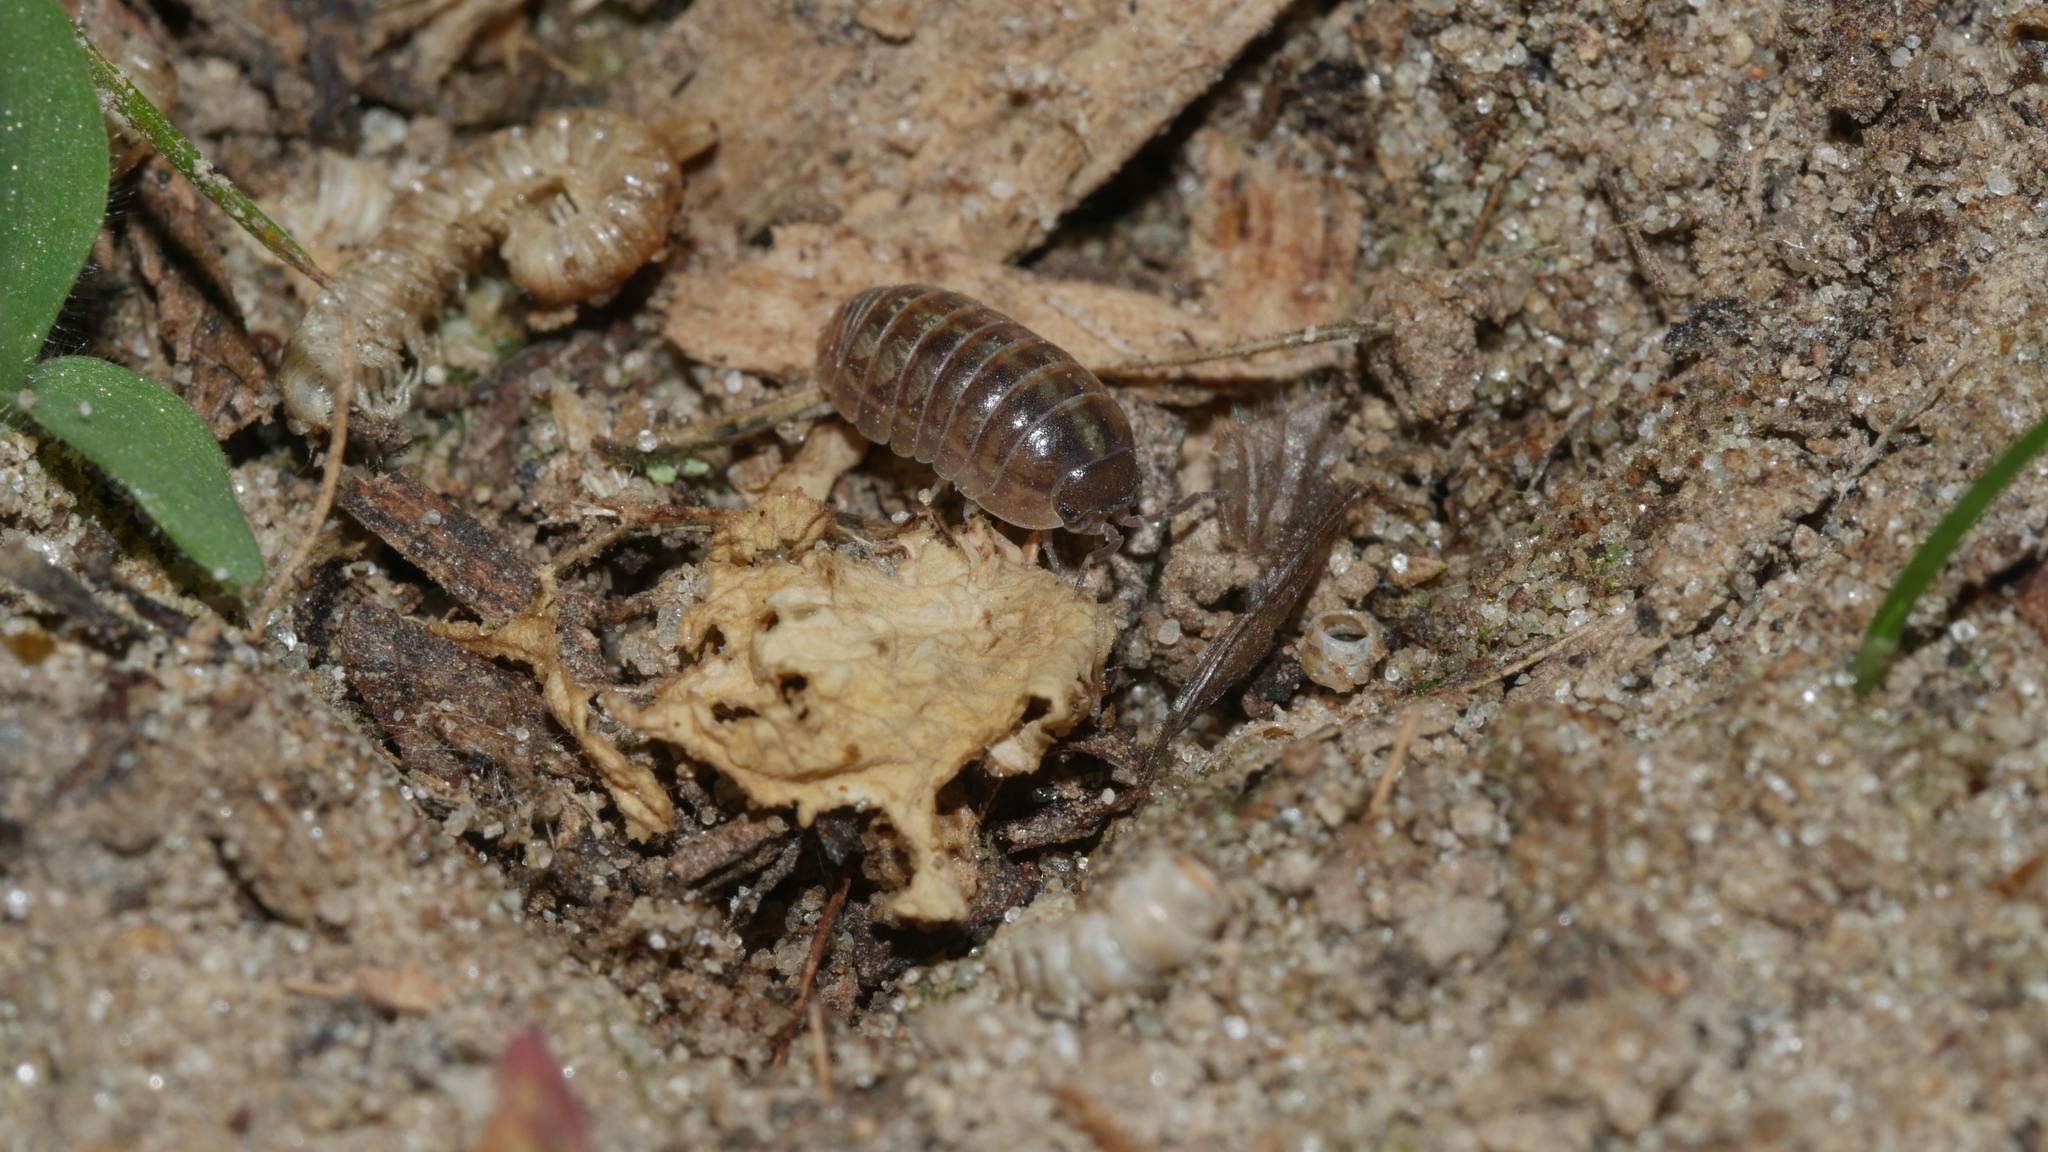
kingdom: Animalia
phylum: Arthropoda
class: Malacostraca
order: Isopoda
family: Armadillidiidae
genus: Armadillidium
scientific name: Armadillidium vulgare
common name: Common pill woodlouse
